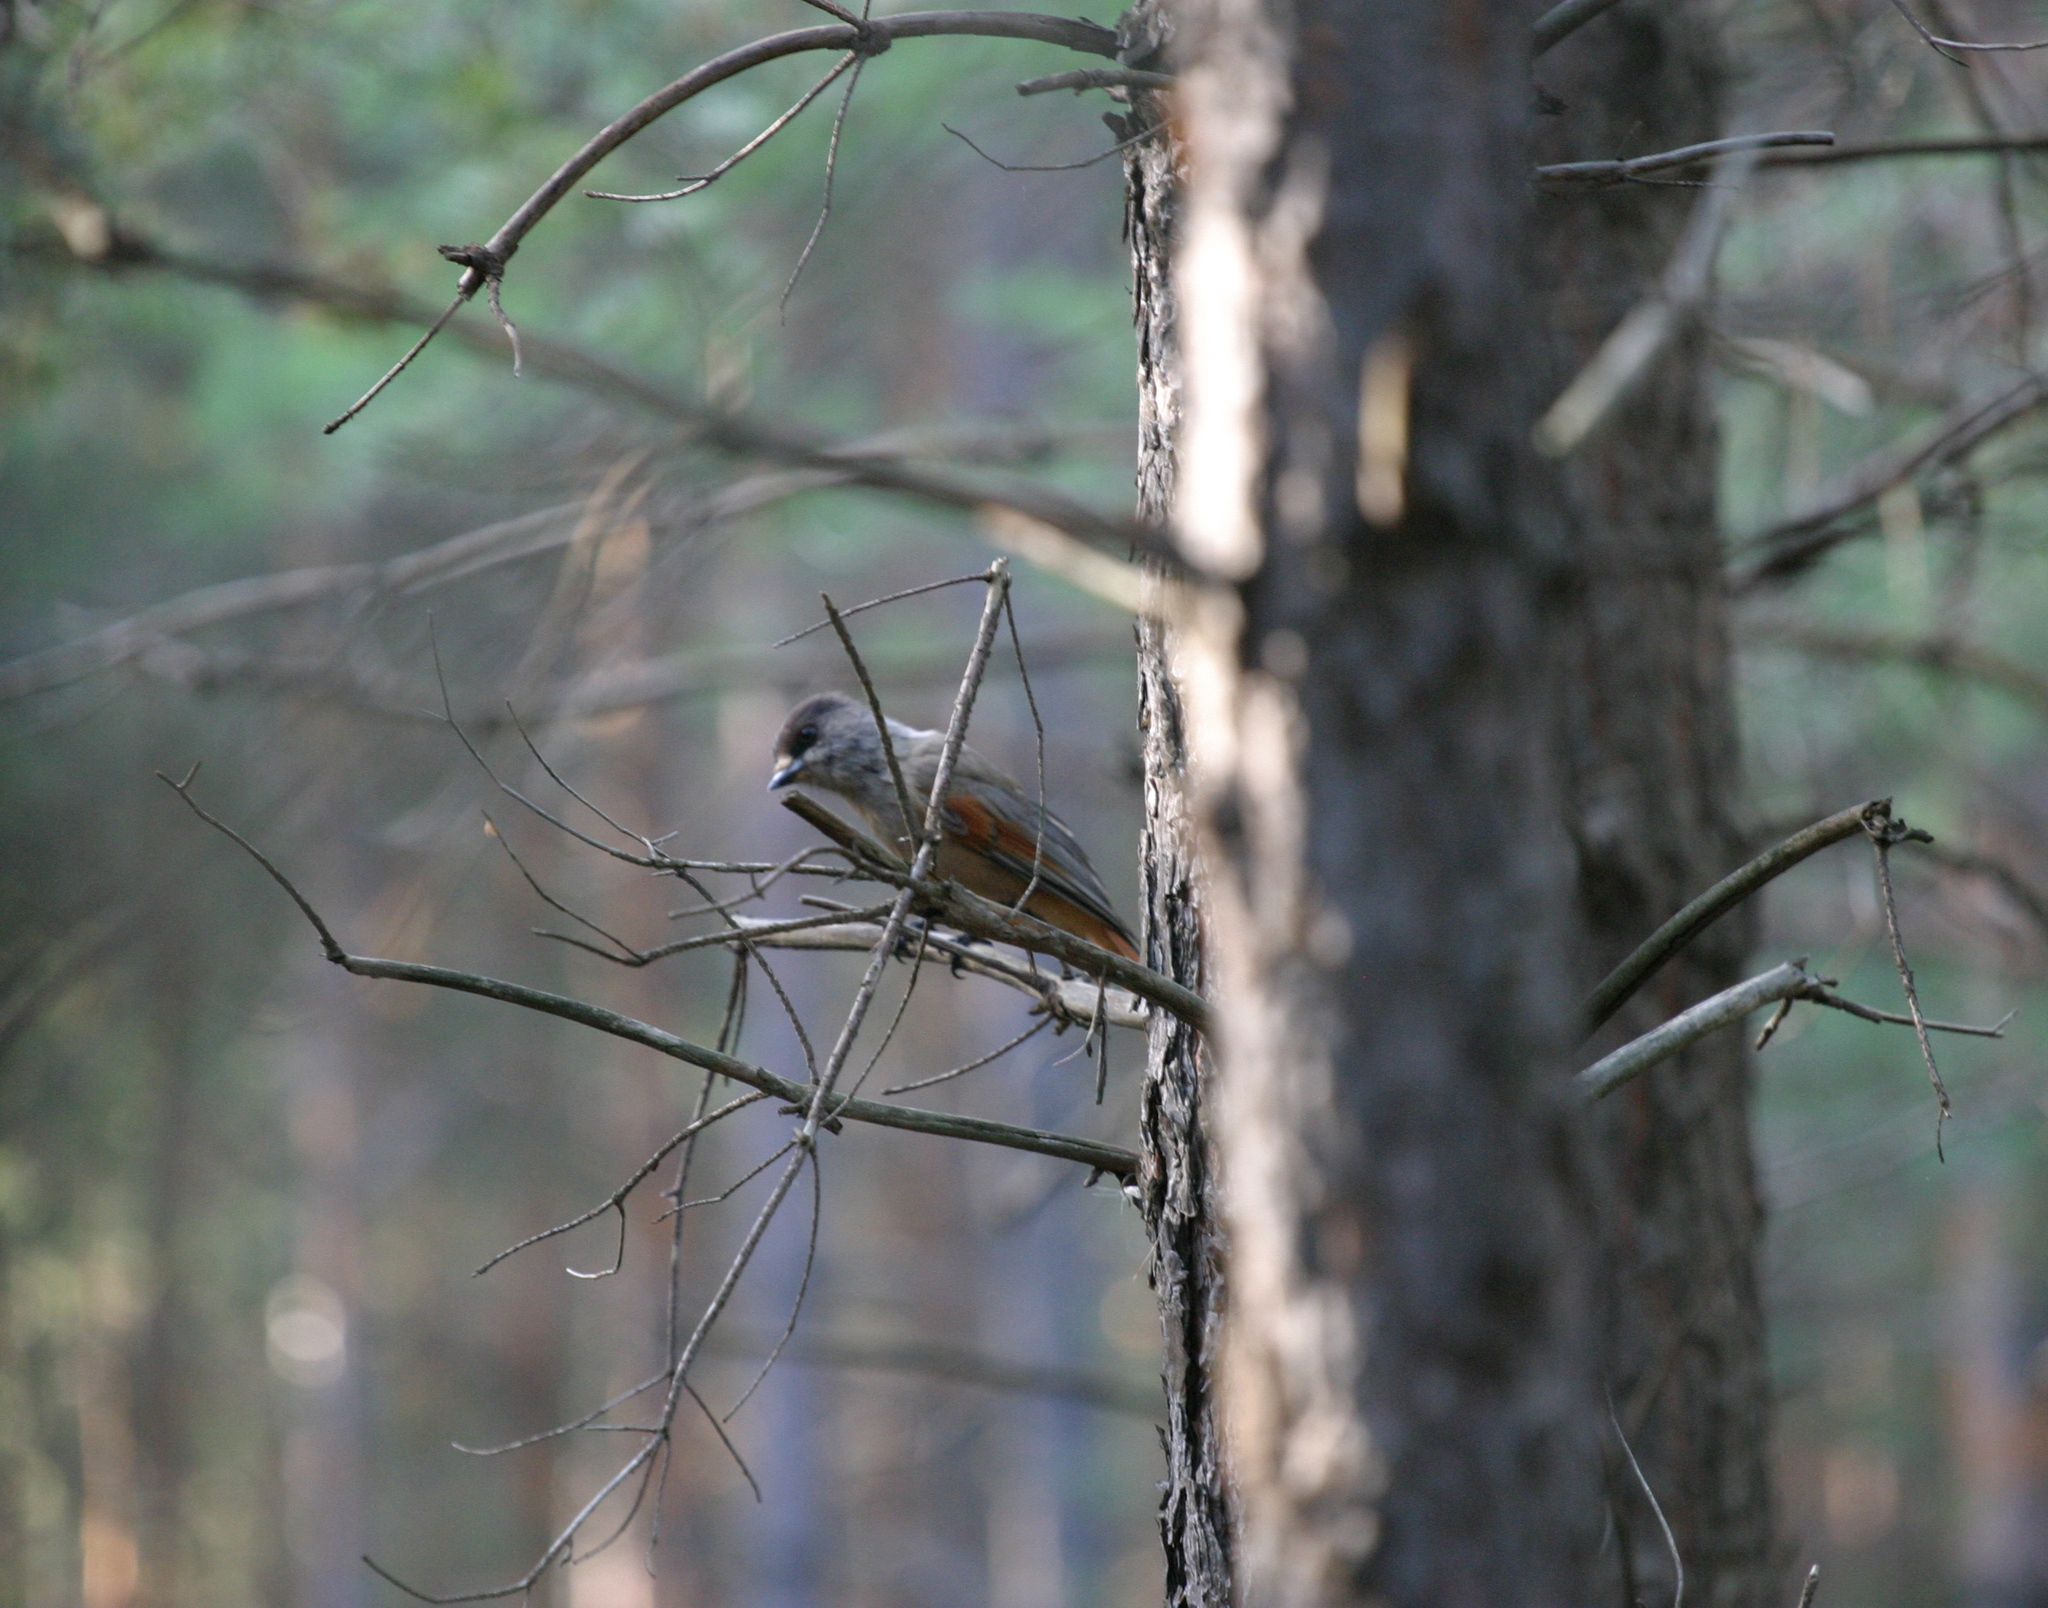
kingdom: Animalia
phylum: Chordata
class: Aves
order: Passeriformes
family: Corvidae
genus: Perisoreus
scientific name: Perisoreus infaustus
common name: Siberian jay
